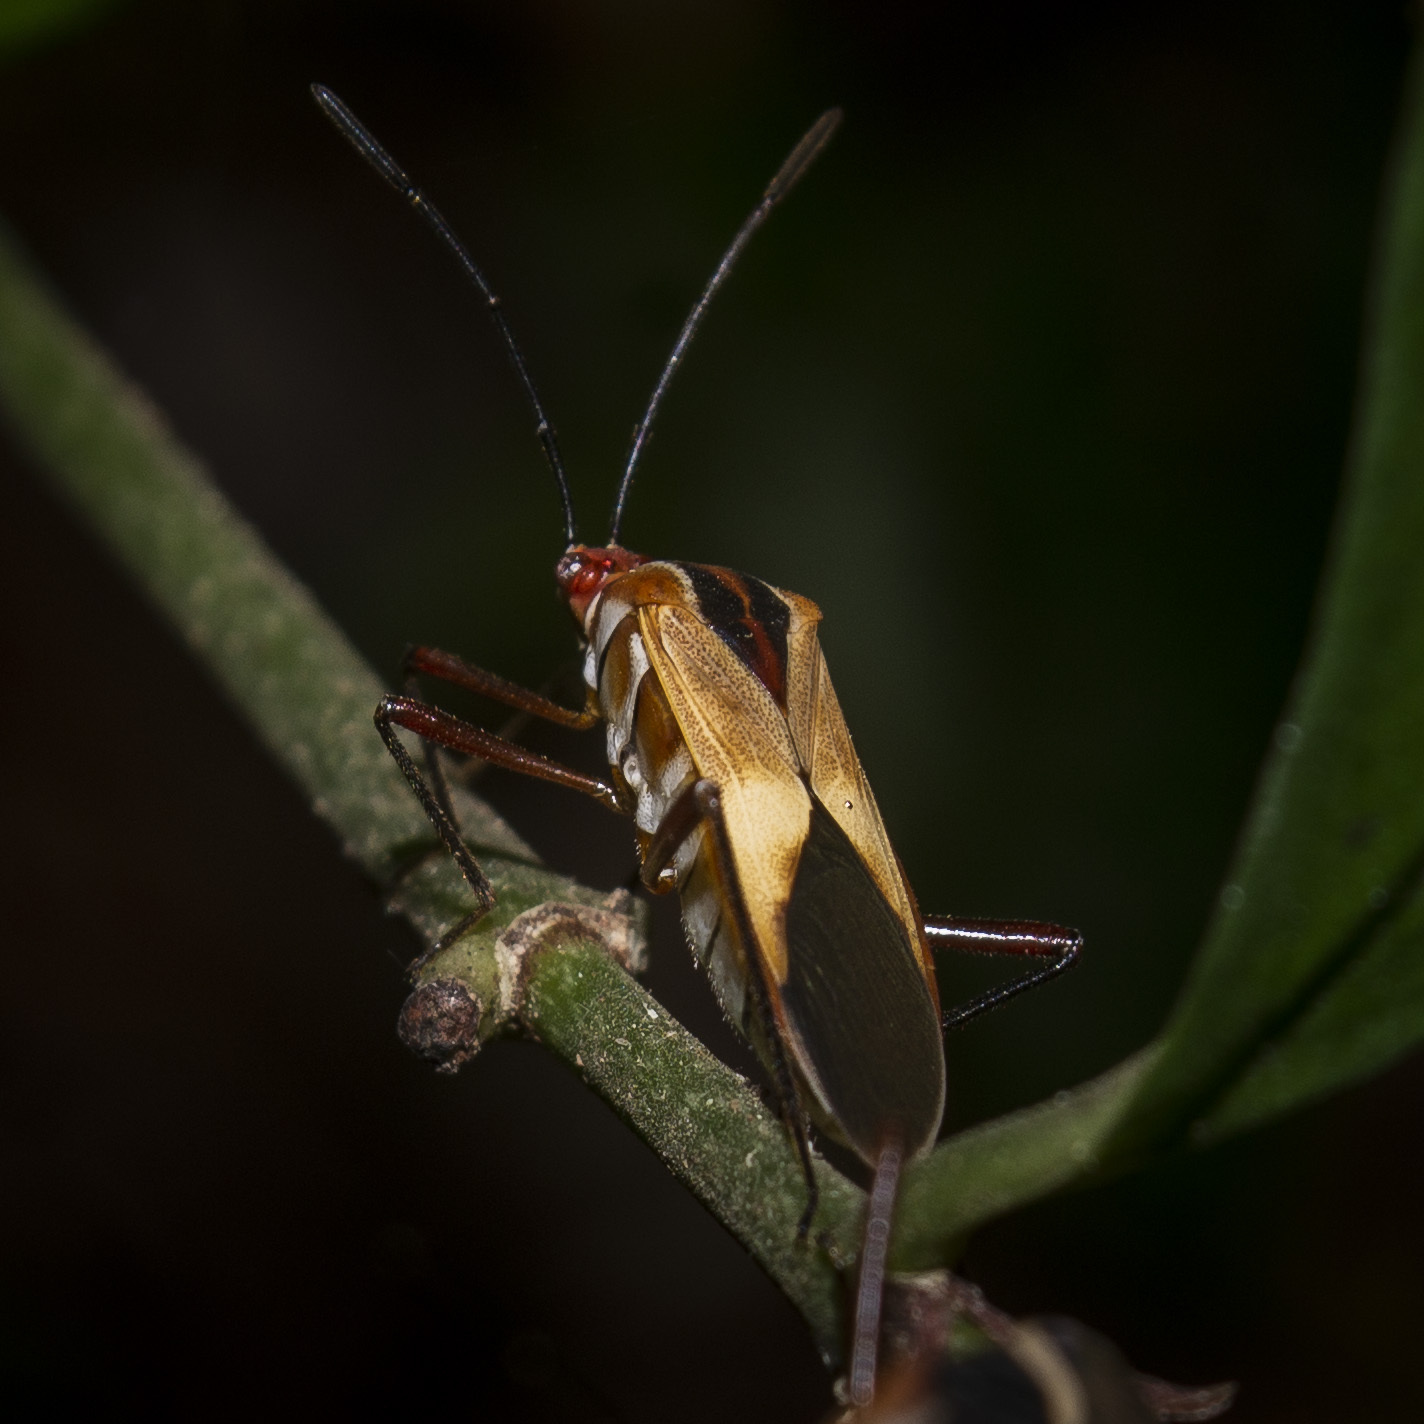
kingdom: Animalia
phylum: Arthropoda
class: Insecta
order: Hemiptera
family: Coreidae
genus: Hypselonotus
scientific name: Hypselonotus interruptus
